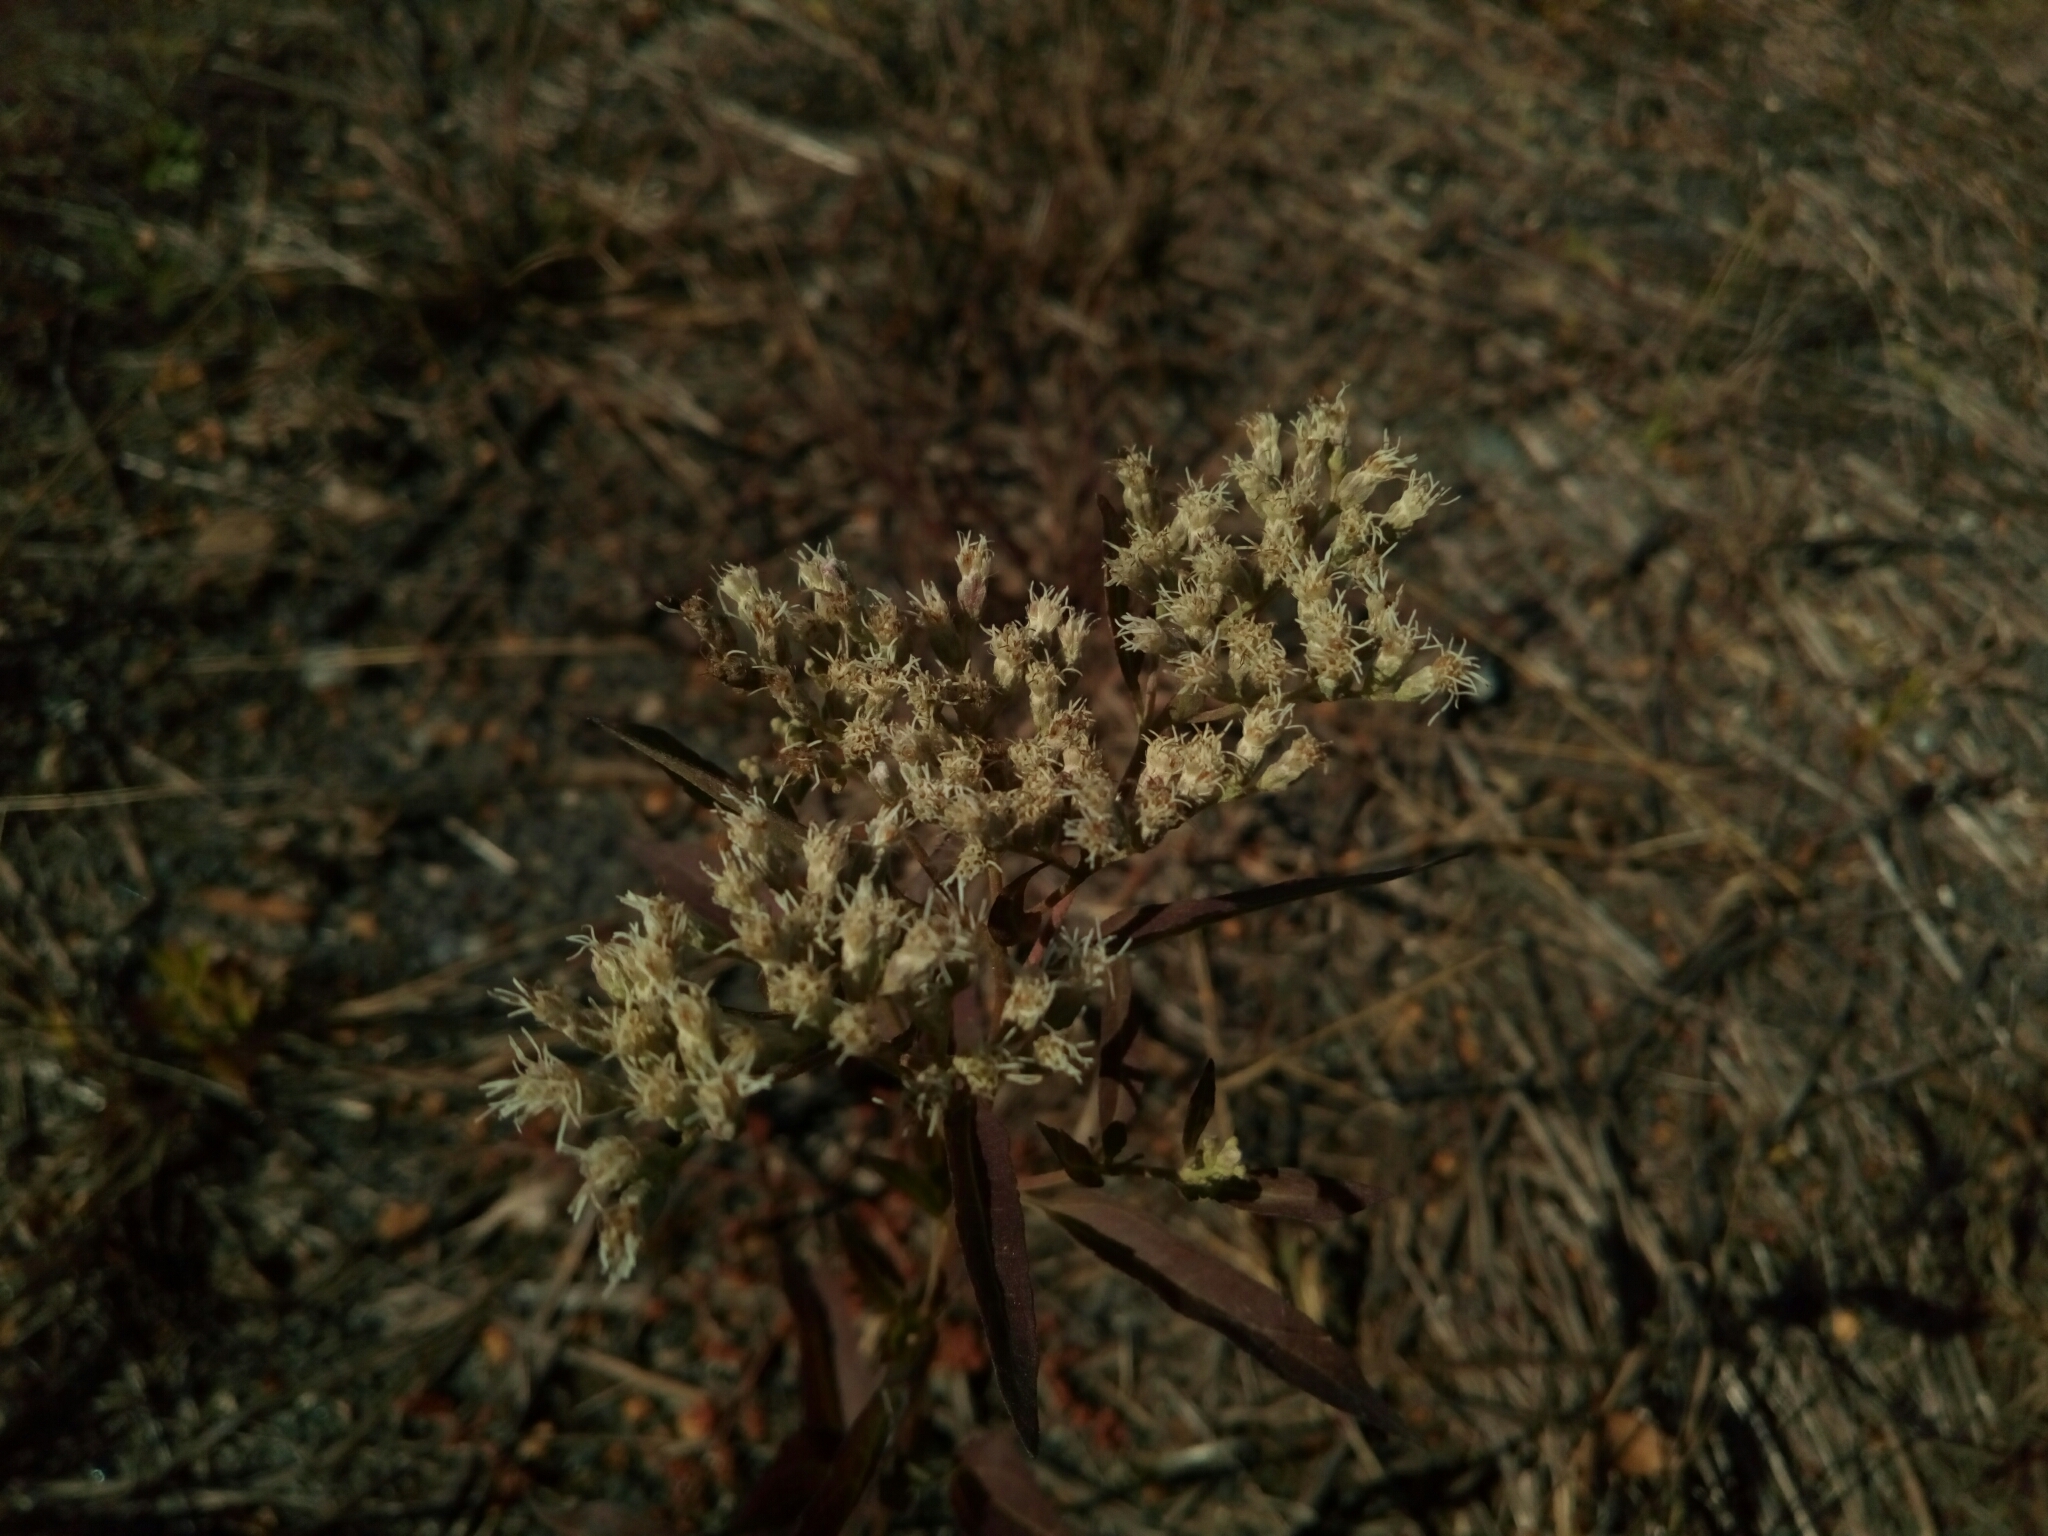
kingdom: Plantae
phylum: Tracheophyta
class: Magnoliopsida
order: Asterales
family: Asteraceae
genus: Eupatorium
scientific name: Eupatorium serotinum
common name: Late boneset
